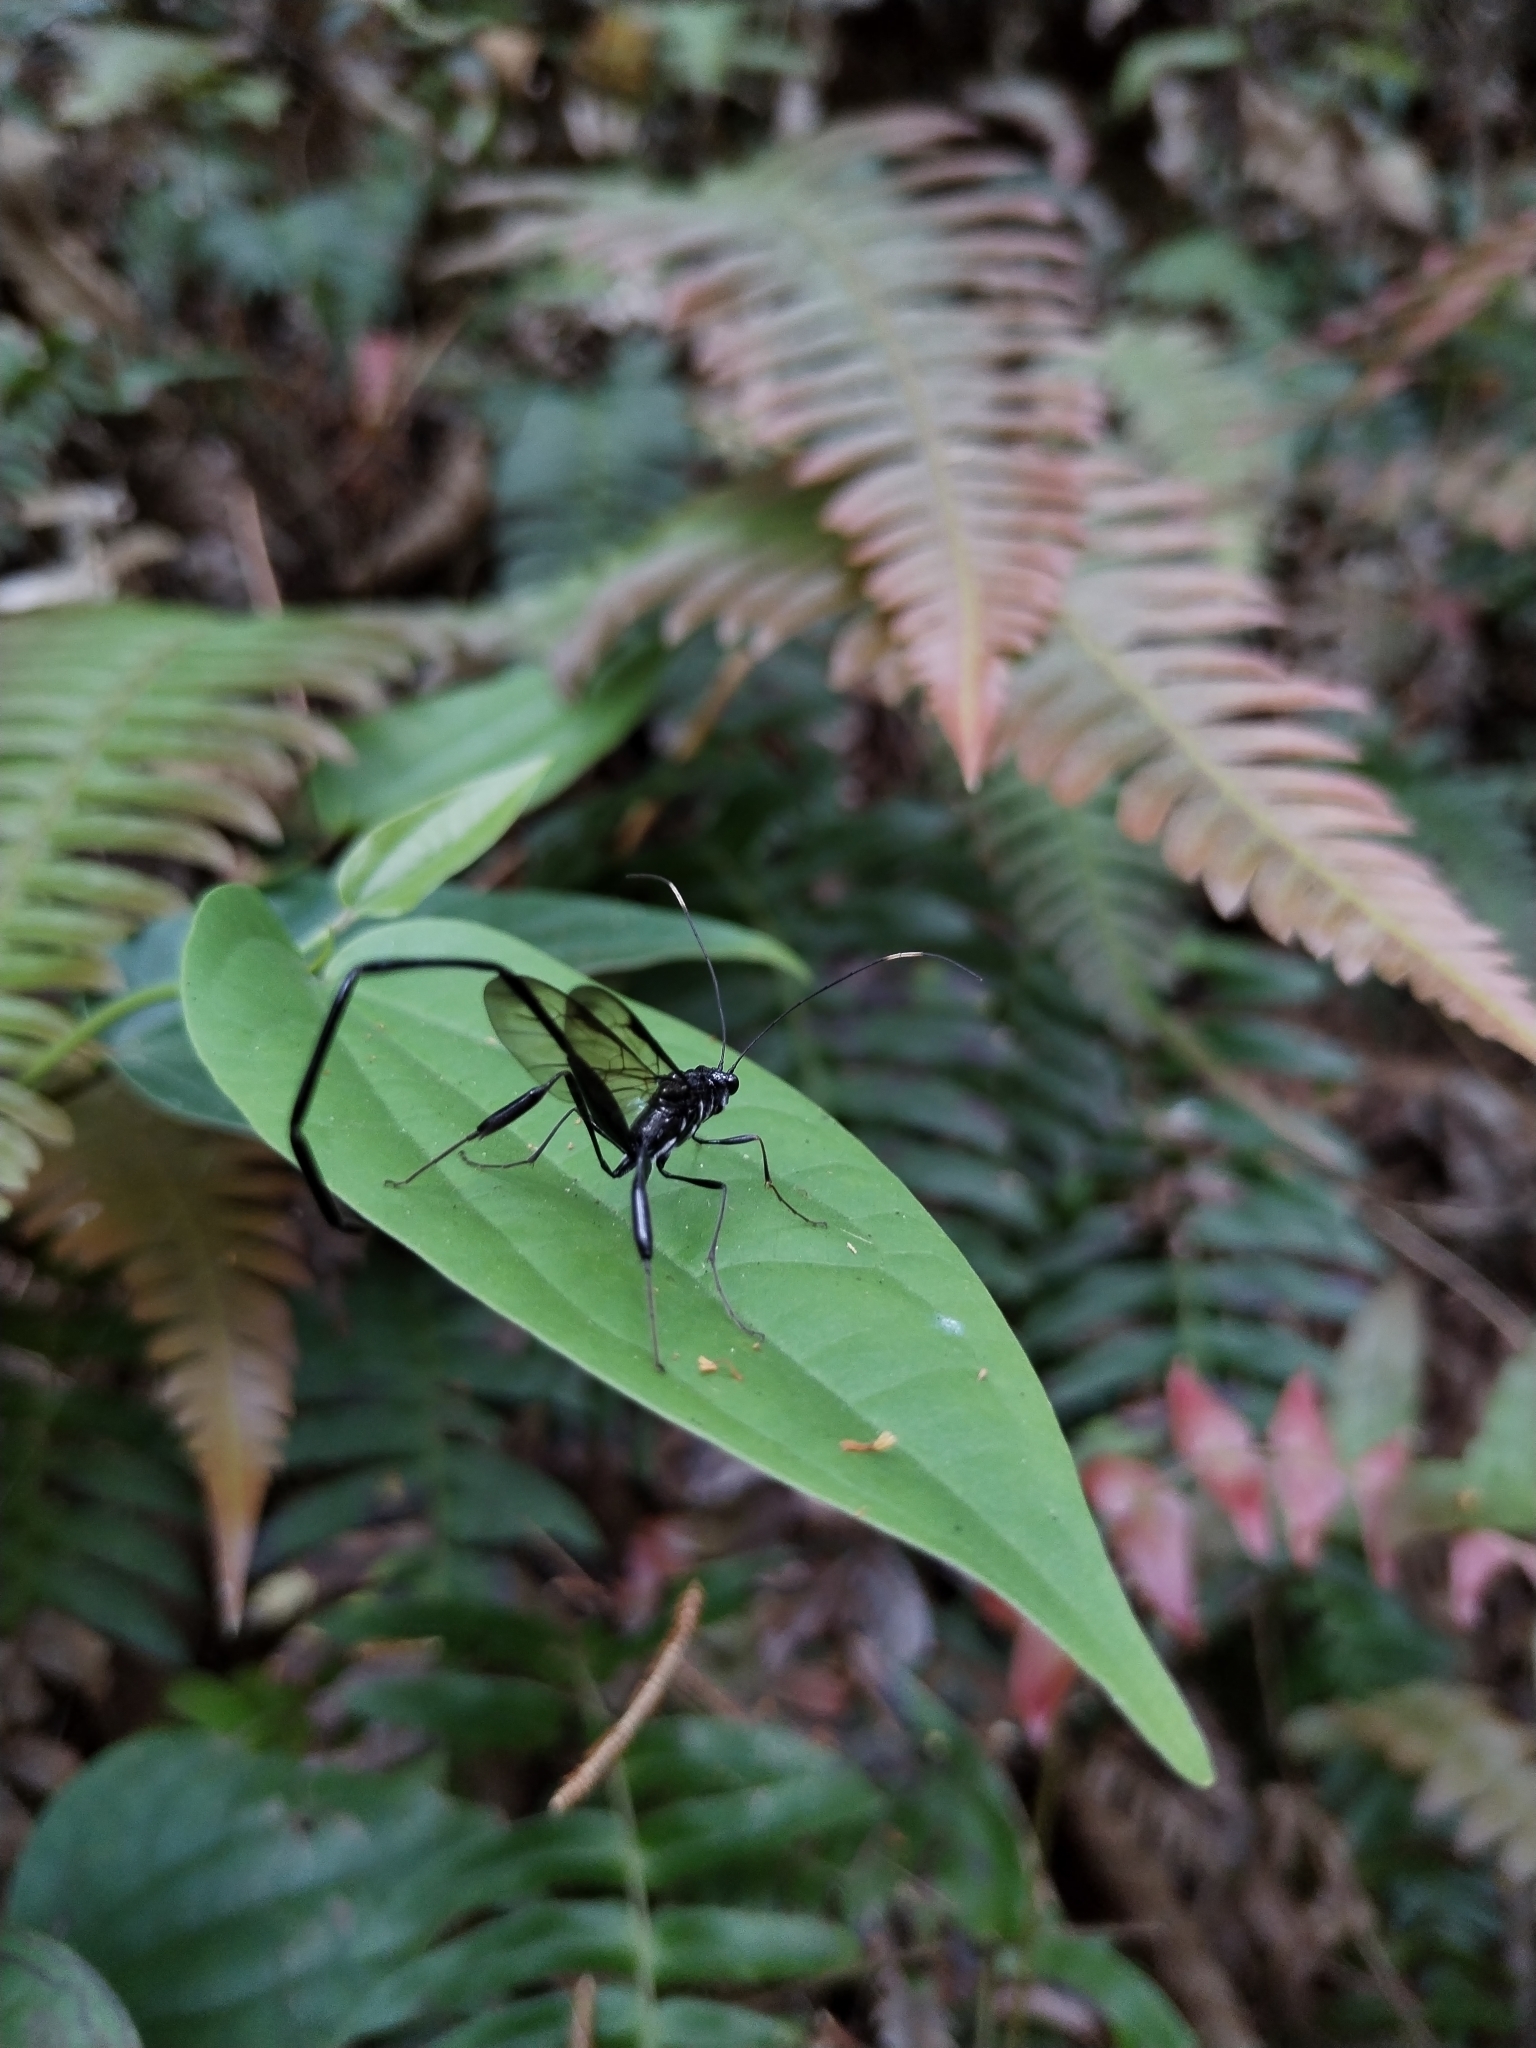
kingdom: Animalia
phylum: Arthropoda
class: Insecta
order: Hymenoptera
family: Pelecinidae
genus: Pelecinus
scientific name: Pelecinus polyturator
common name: American pelecinid wasp
